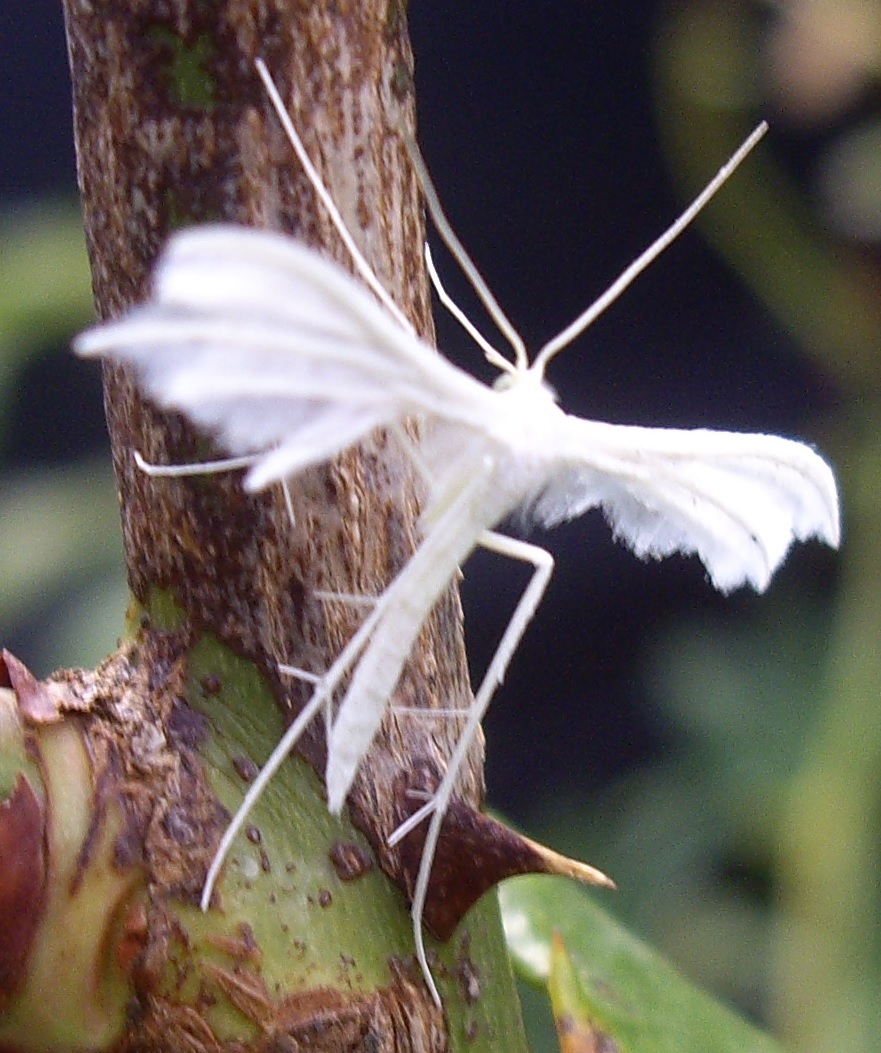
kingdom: Animalia
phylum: Arthropoda
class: Insecta
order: Lepidoptera
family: Pterophoridae
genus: Pterophorus
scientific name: Pterophorus pentadactyla
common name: White plume moth
